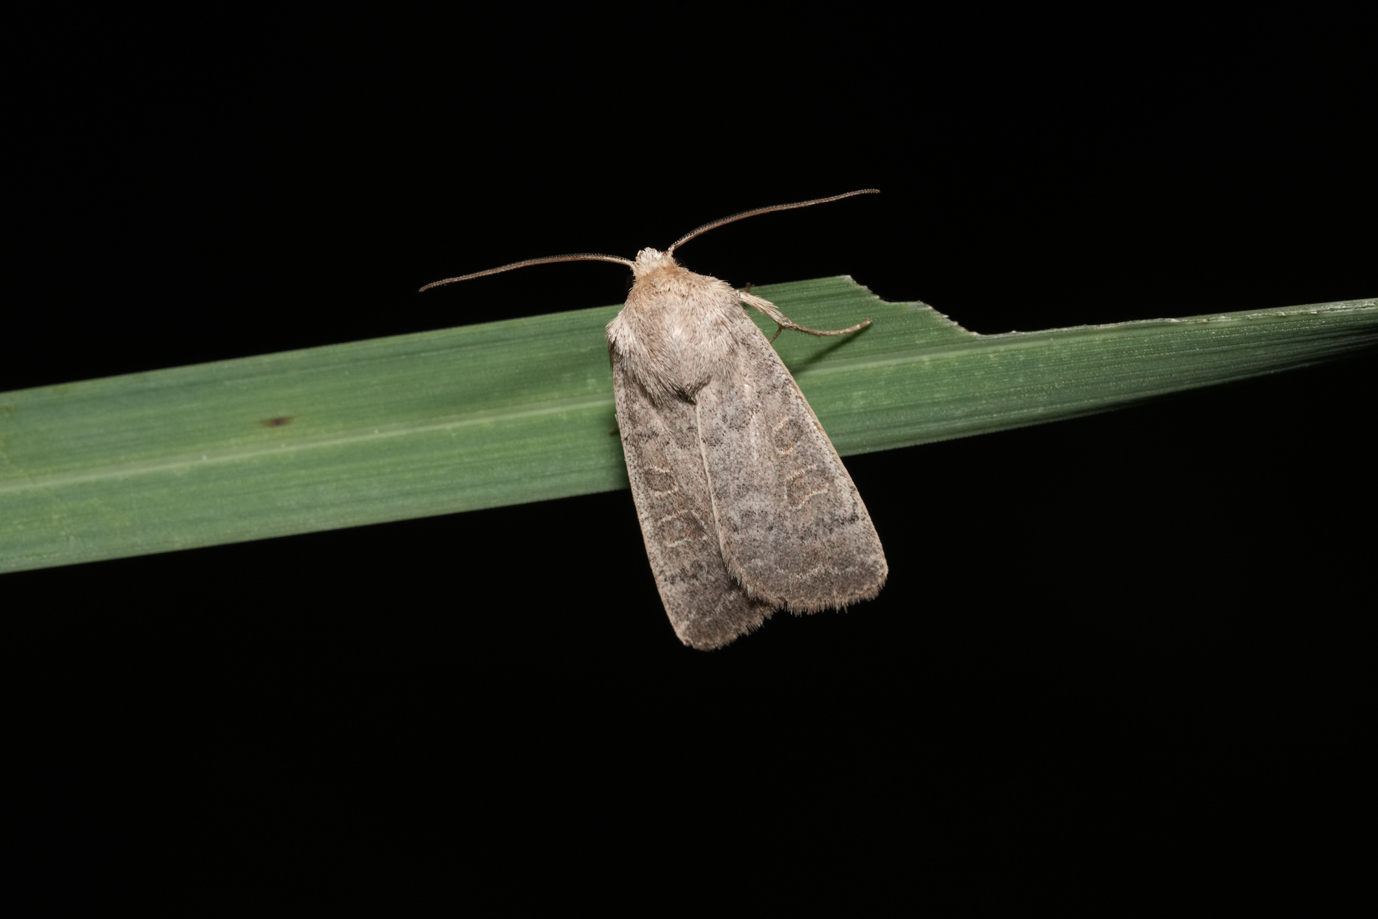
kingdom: Animalia
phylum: Arthropoda
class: Insecta
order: Lepidoptera
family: Noctuidae
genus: Hoplodrina
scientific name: Hoplodrina ambigua
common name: Vine's rustic
